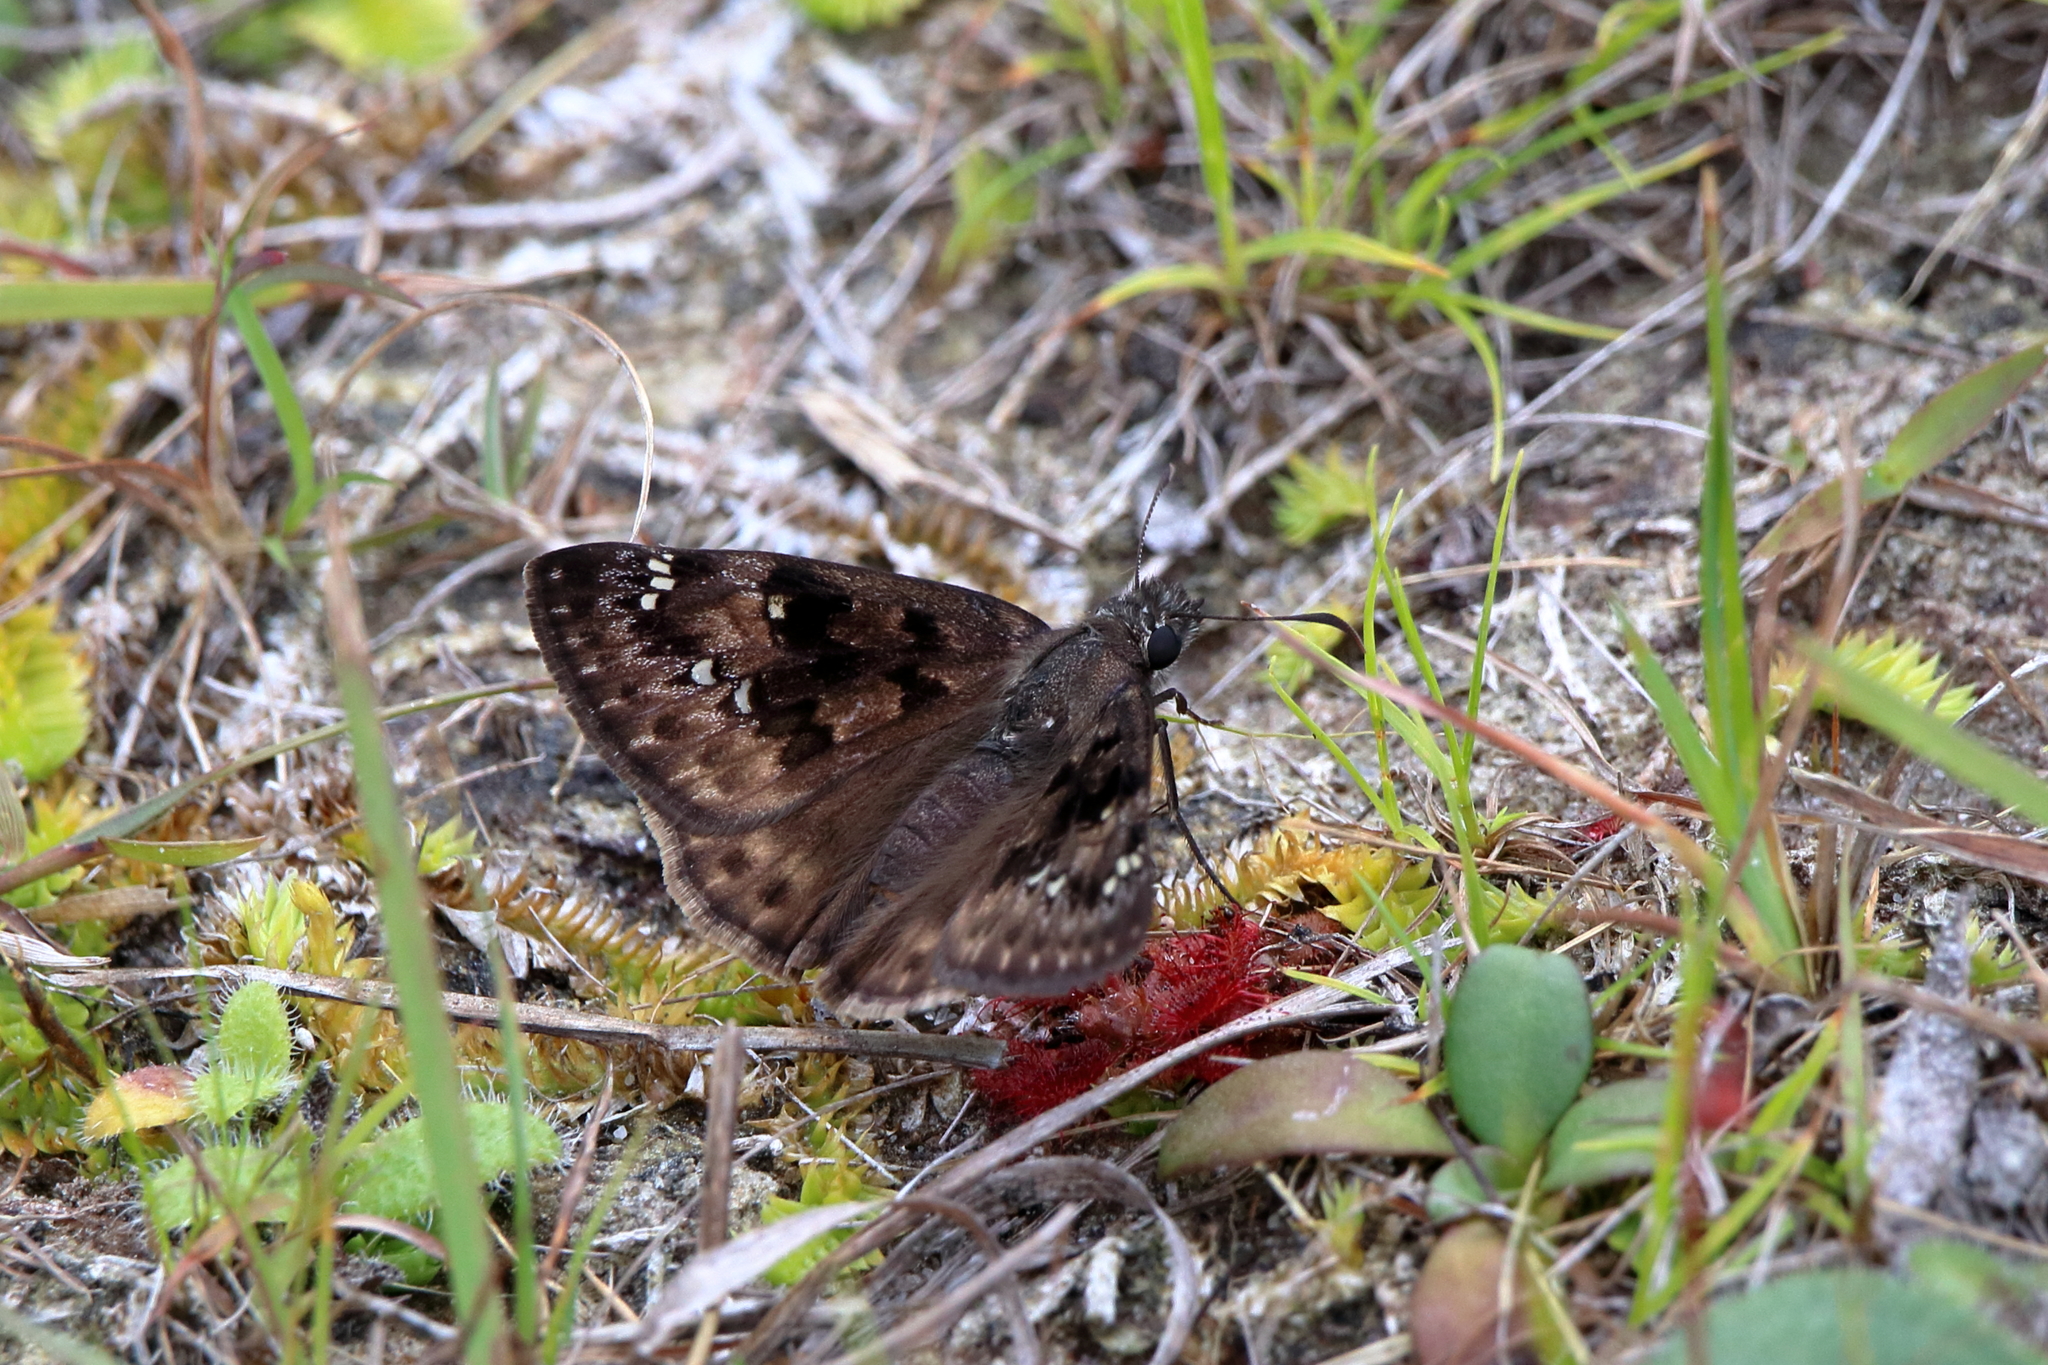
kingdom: Animalia
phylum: Arthropoda
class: Insecta
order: Lepidoptera
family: Hesperiidae
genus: Erynnis
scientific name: Erynnis horatius
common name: Horace's duskywing
